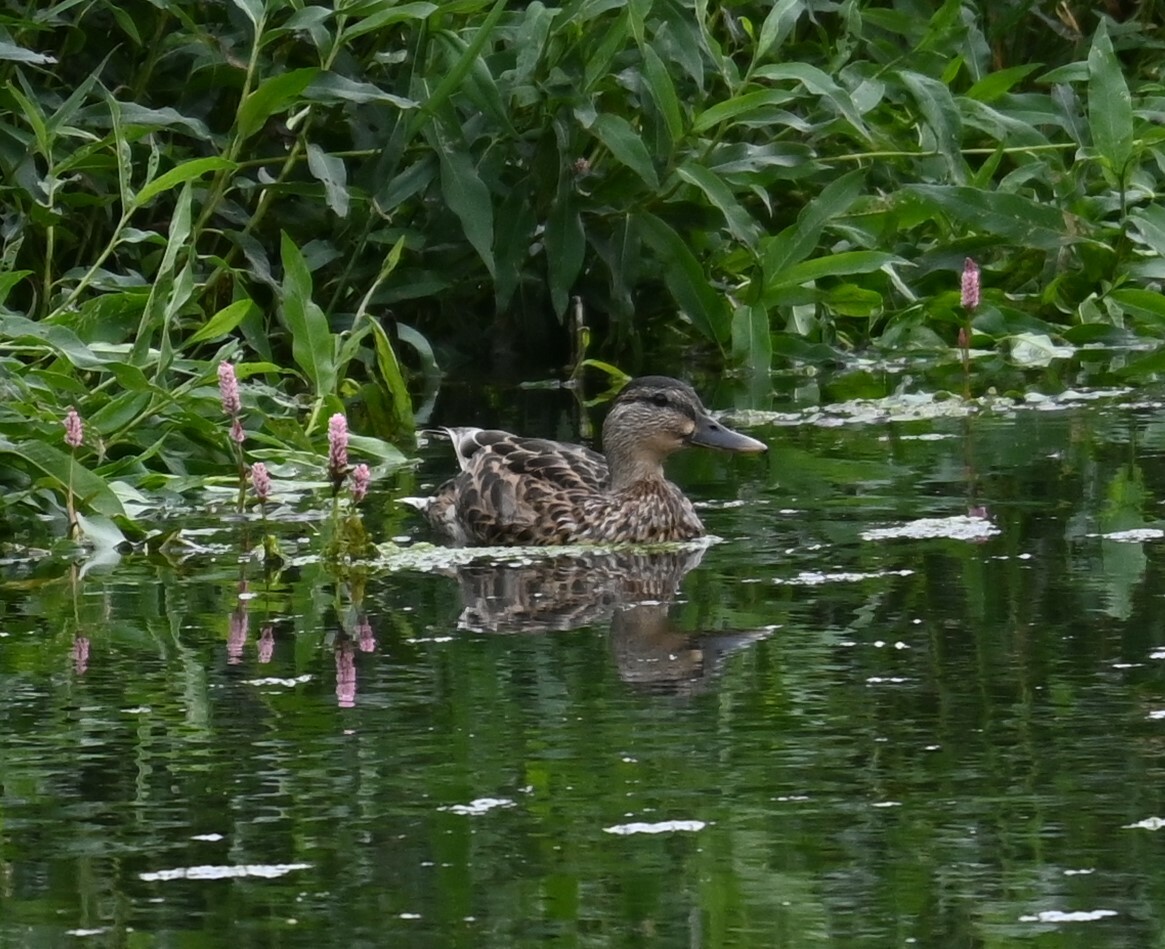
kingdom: Animalia
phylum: Chordata
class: Aves
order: Anseriformes
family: Anatidae
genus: Anas
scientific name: Anas platyrhynchos
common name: Mallard
